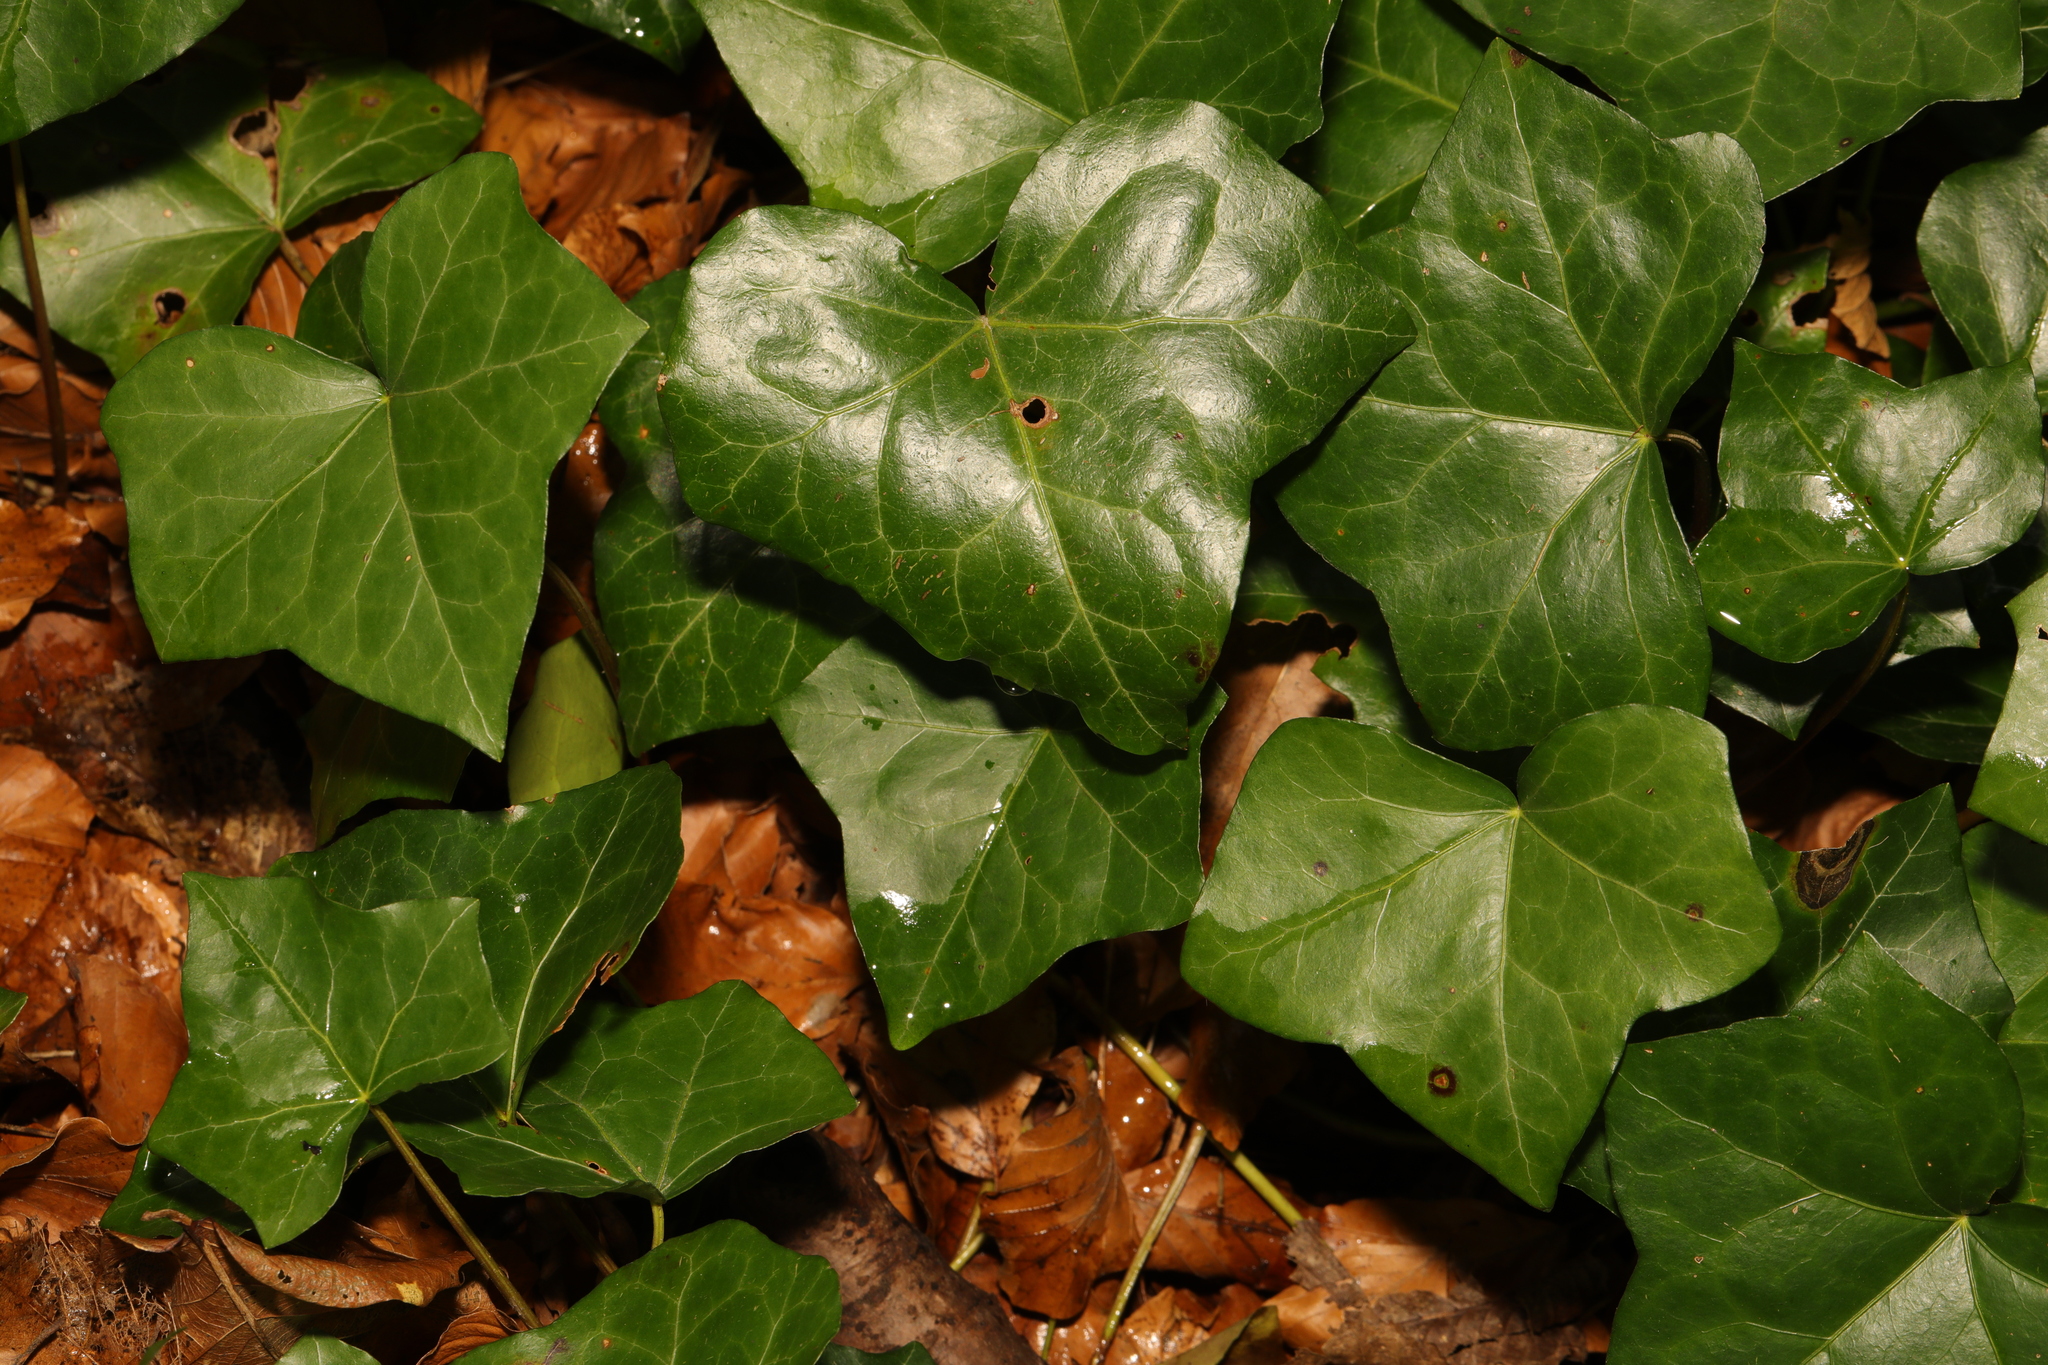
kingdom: Plantae
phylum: Tracheophyta
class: Magnoliopsida
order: Apiales
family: Araliaceae
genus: Hedera
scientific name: Hedera helix
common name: Ivy
